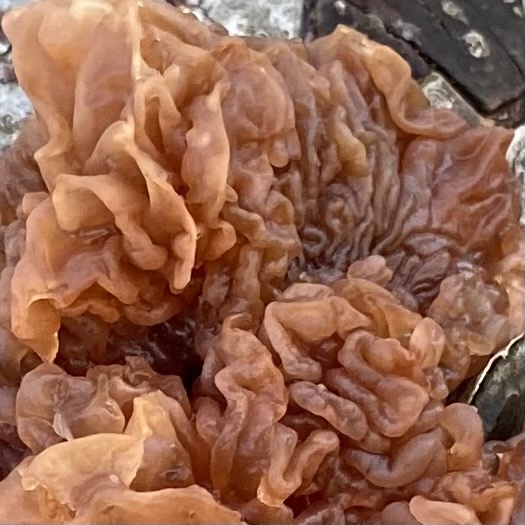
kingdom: Fungi
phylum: Basidiomycota
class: Tremellomycetes
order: Tremellales
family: Tremellaceae
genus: Phaeotremella
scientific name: Phaeotremella foliacea
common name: Leafy brain
